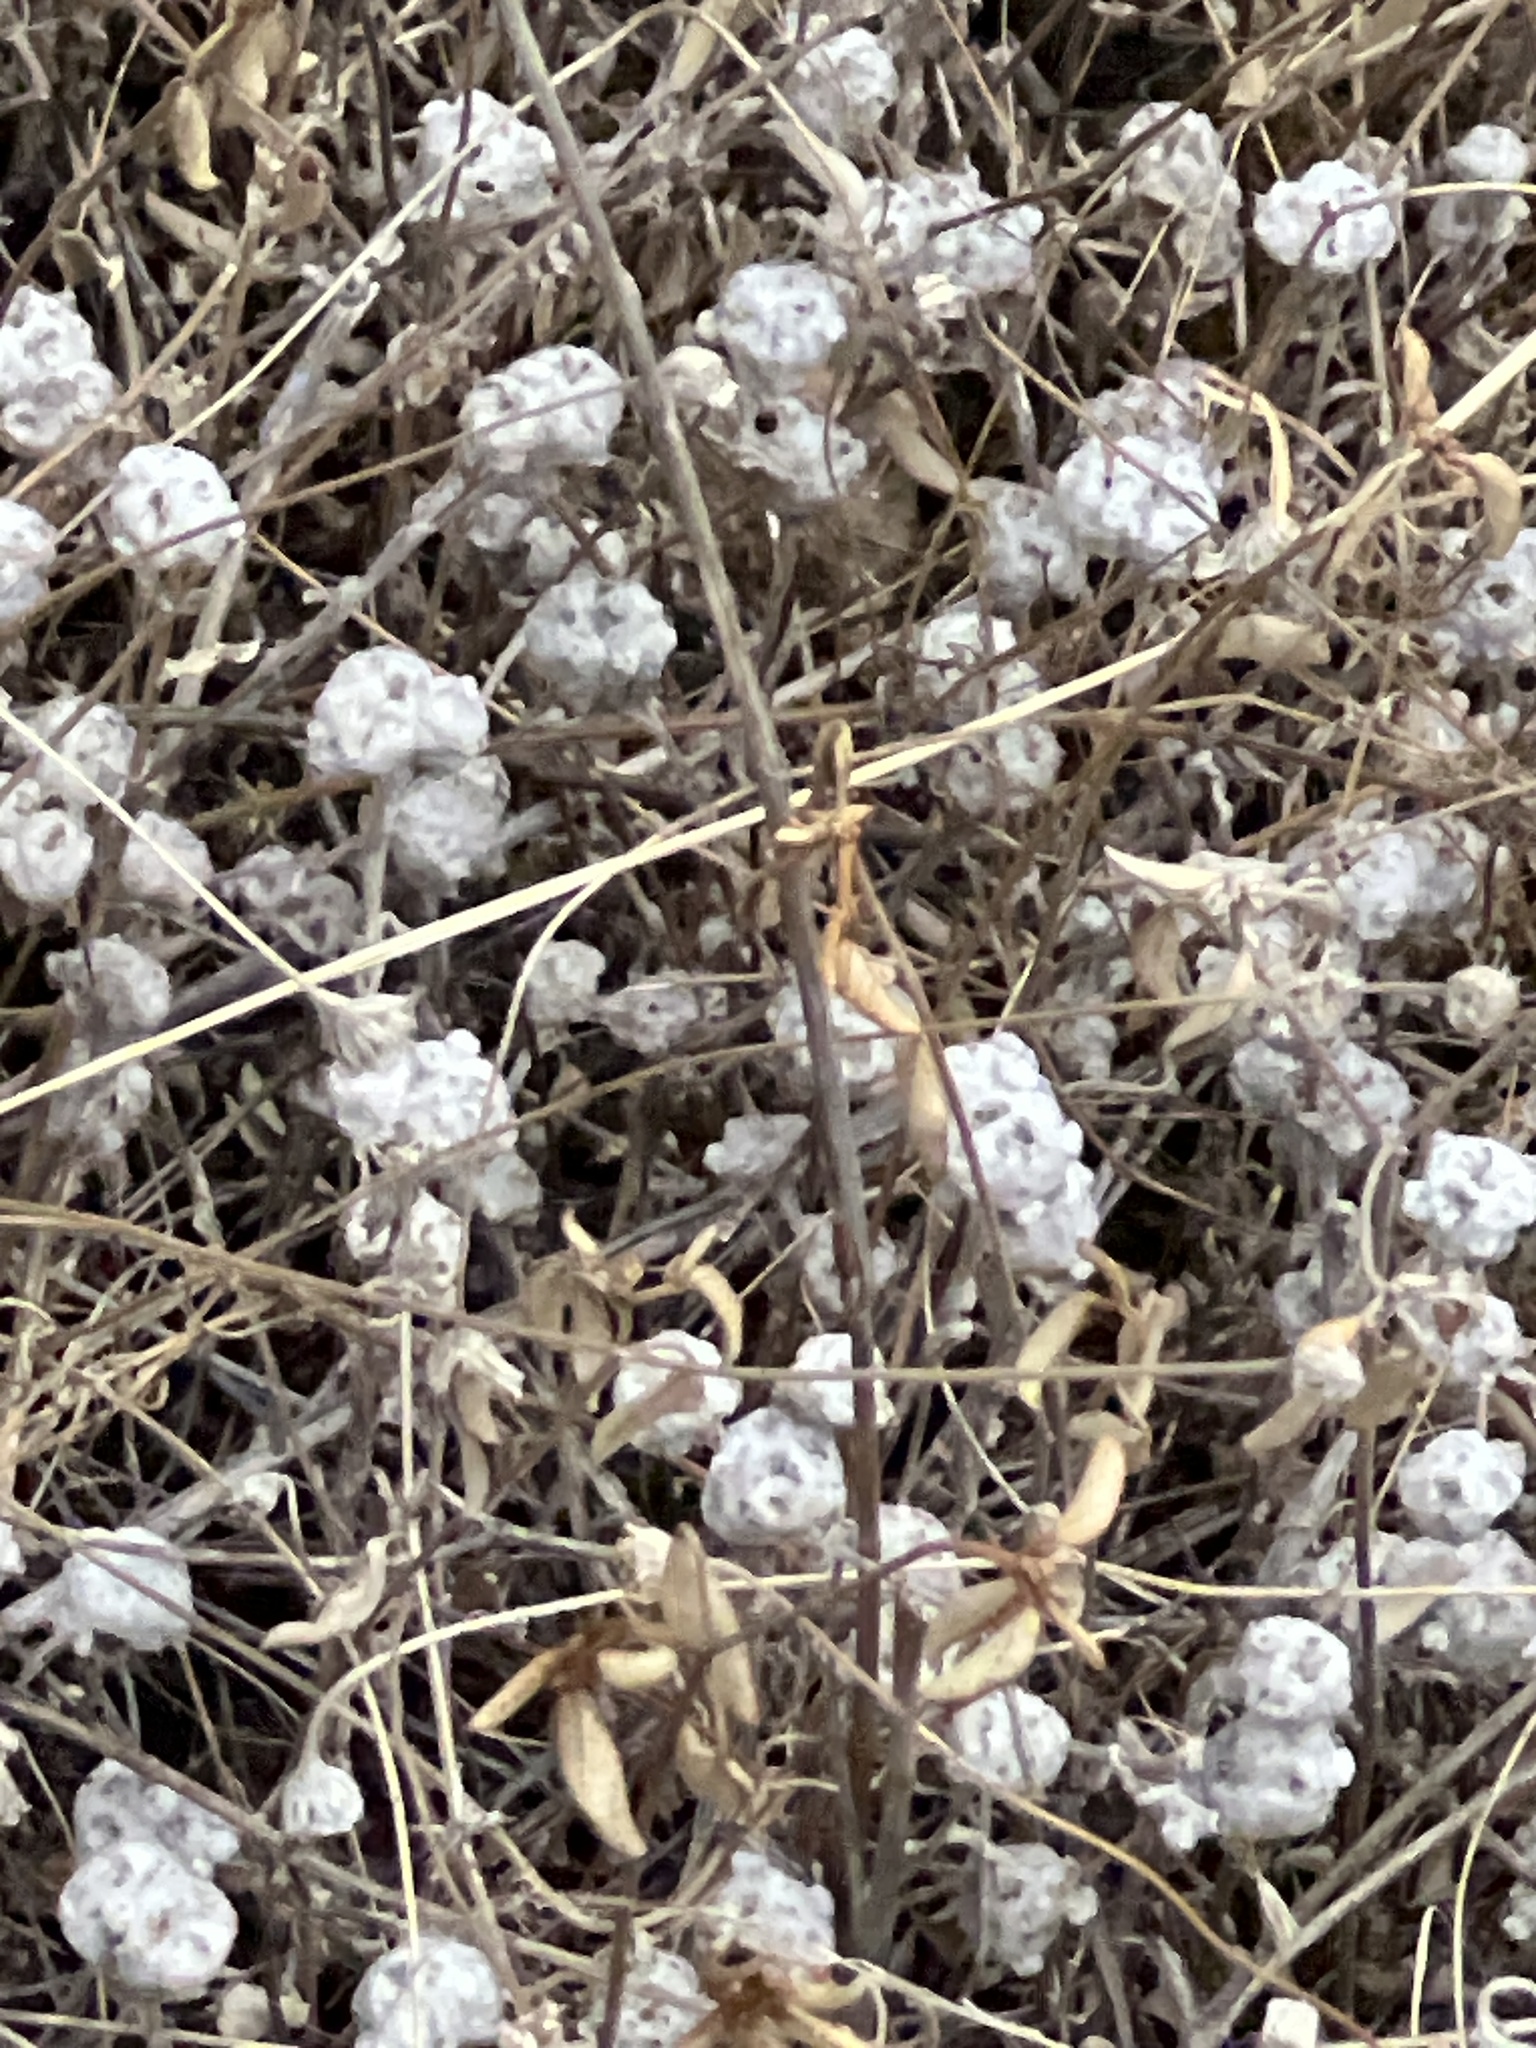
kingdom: Plantae
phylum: Tracheophyta
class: Magnoliopsida
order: Asterales
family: Asteraceae
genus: Diaperia
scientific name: Diaperia verna
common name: Many-stem rabbit-tobacco
